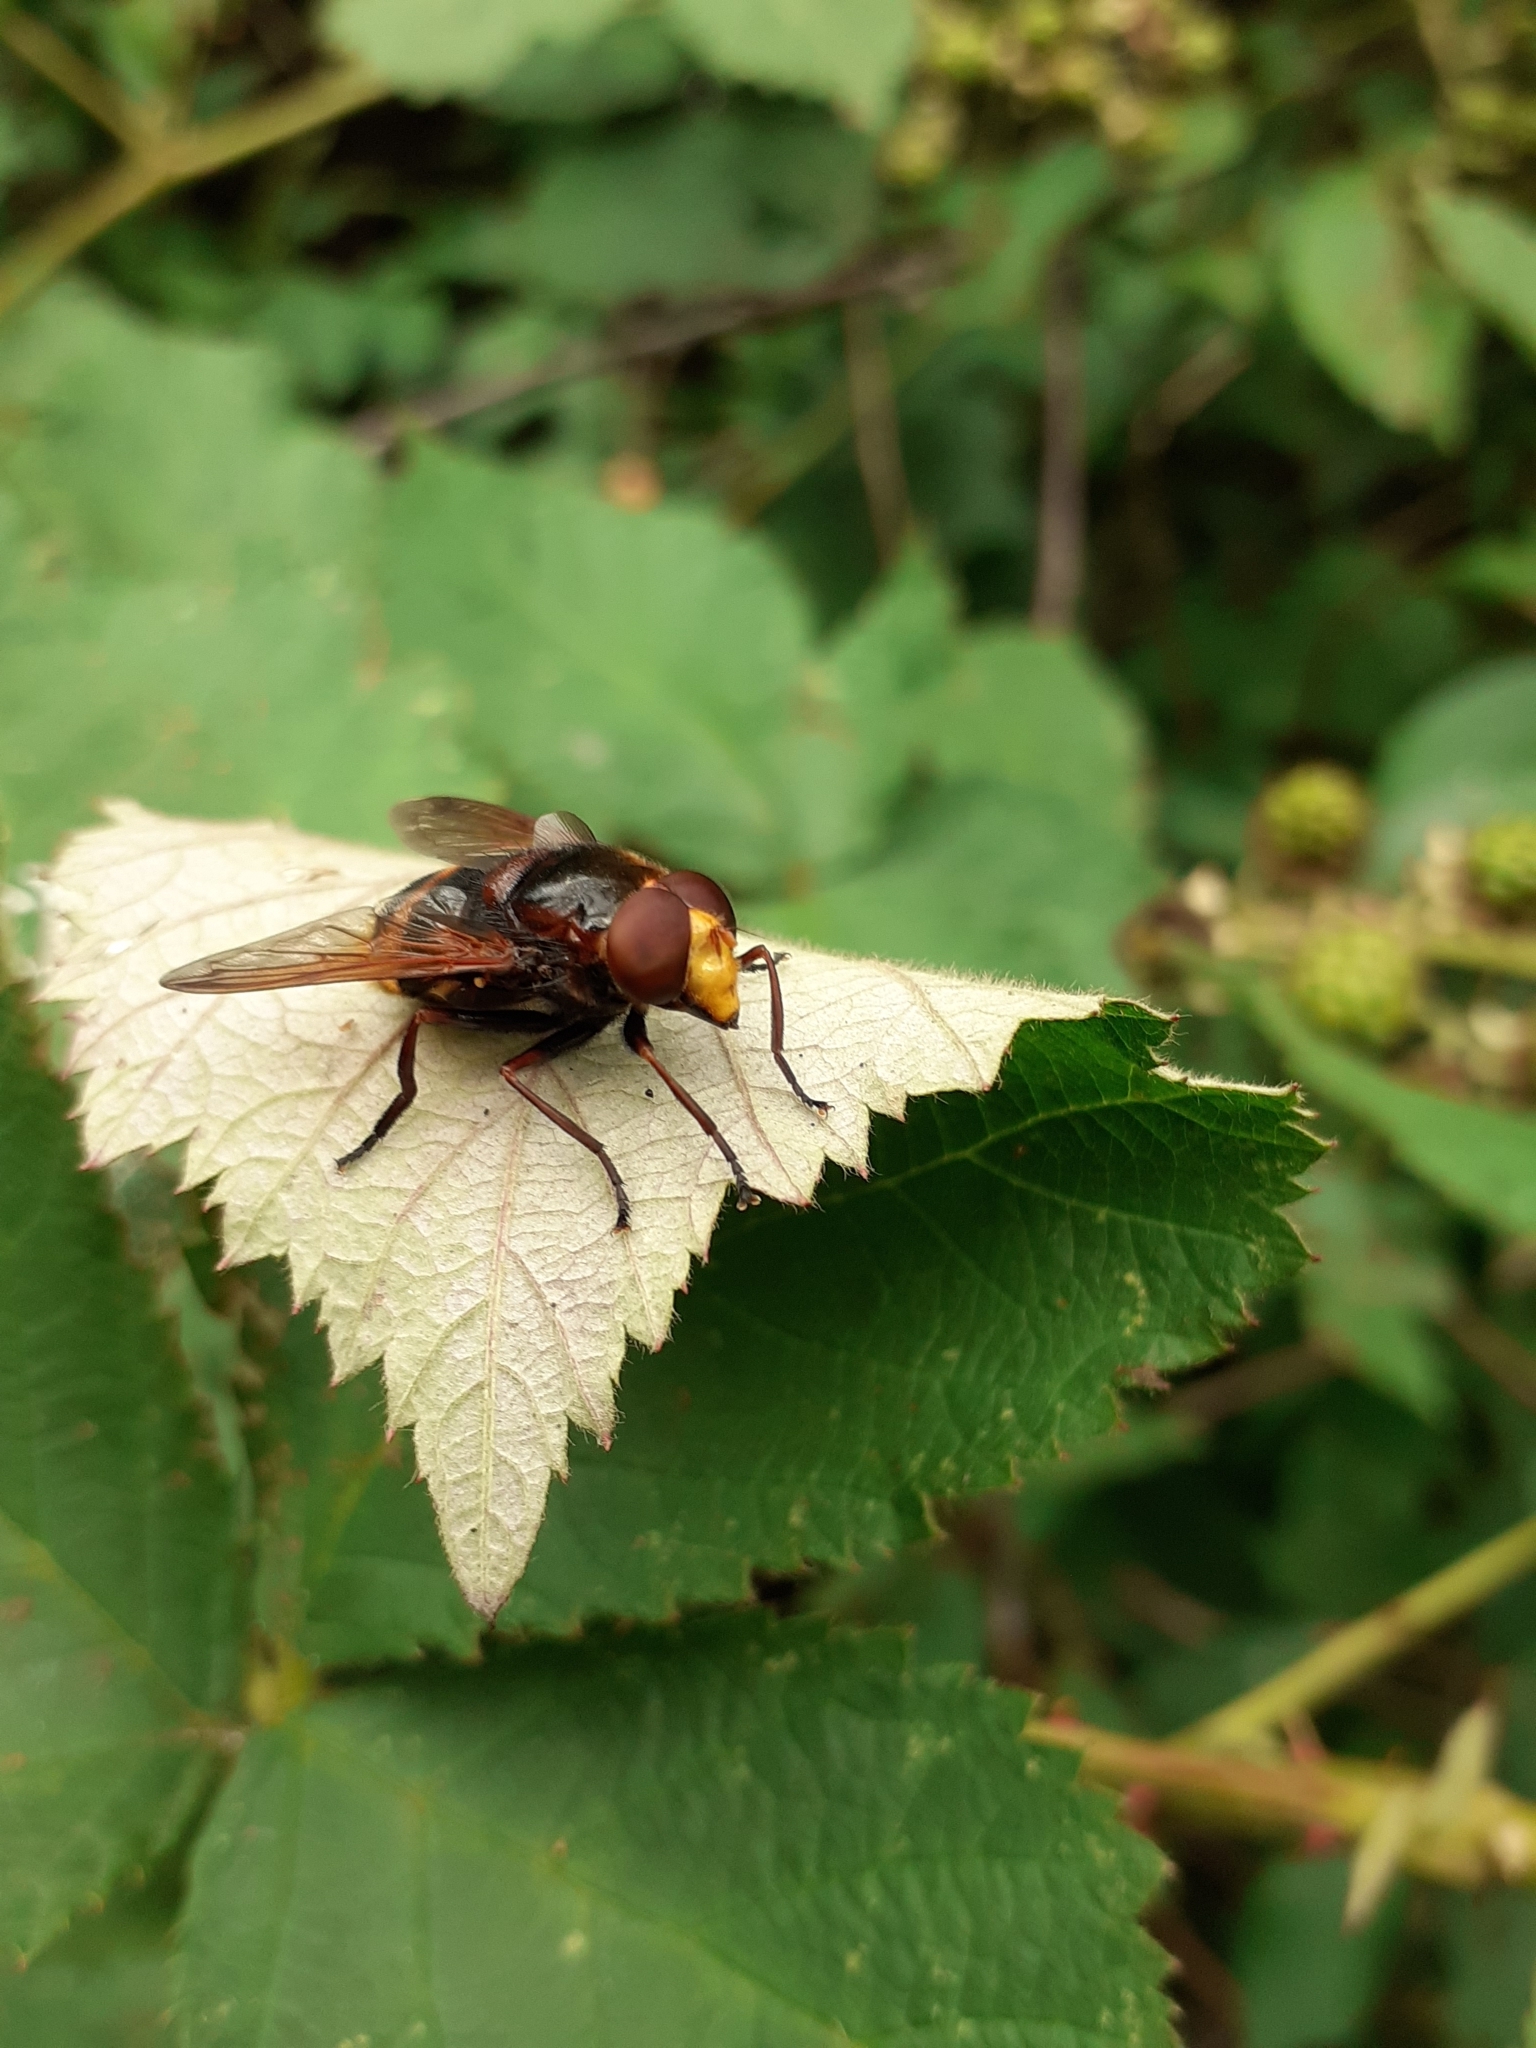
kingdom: Animalia
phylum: Arthropoda
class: Insecta
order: Diptera
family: Syrphidae
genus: Volucella
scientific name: Volucella zonaria
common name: Hornet hoverfly
